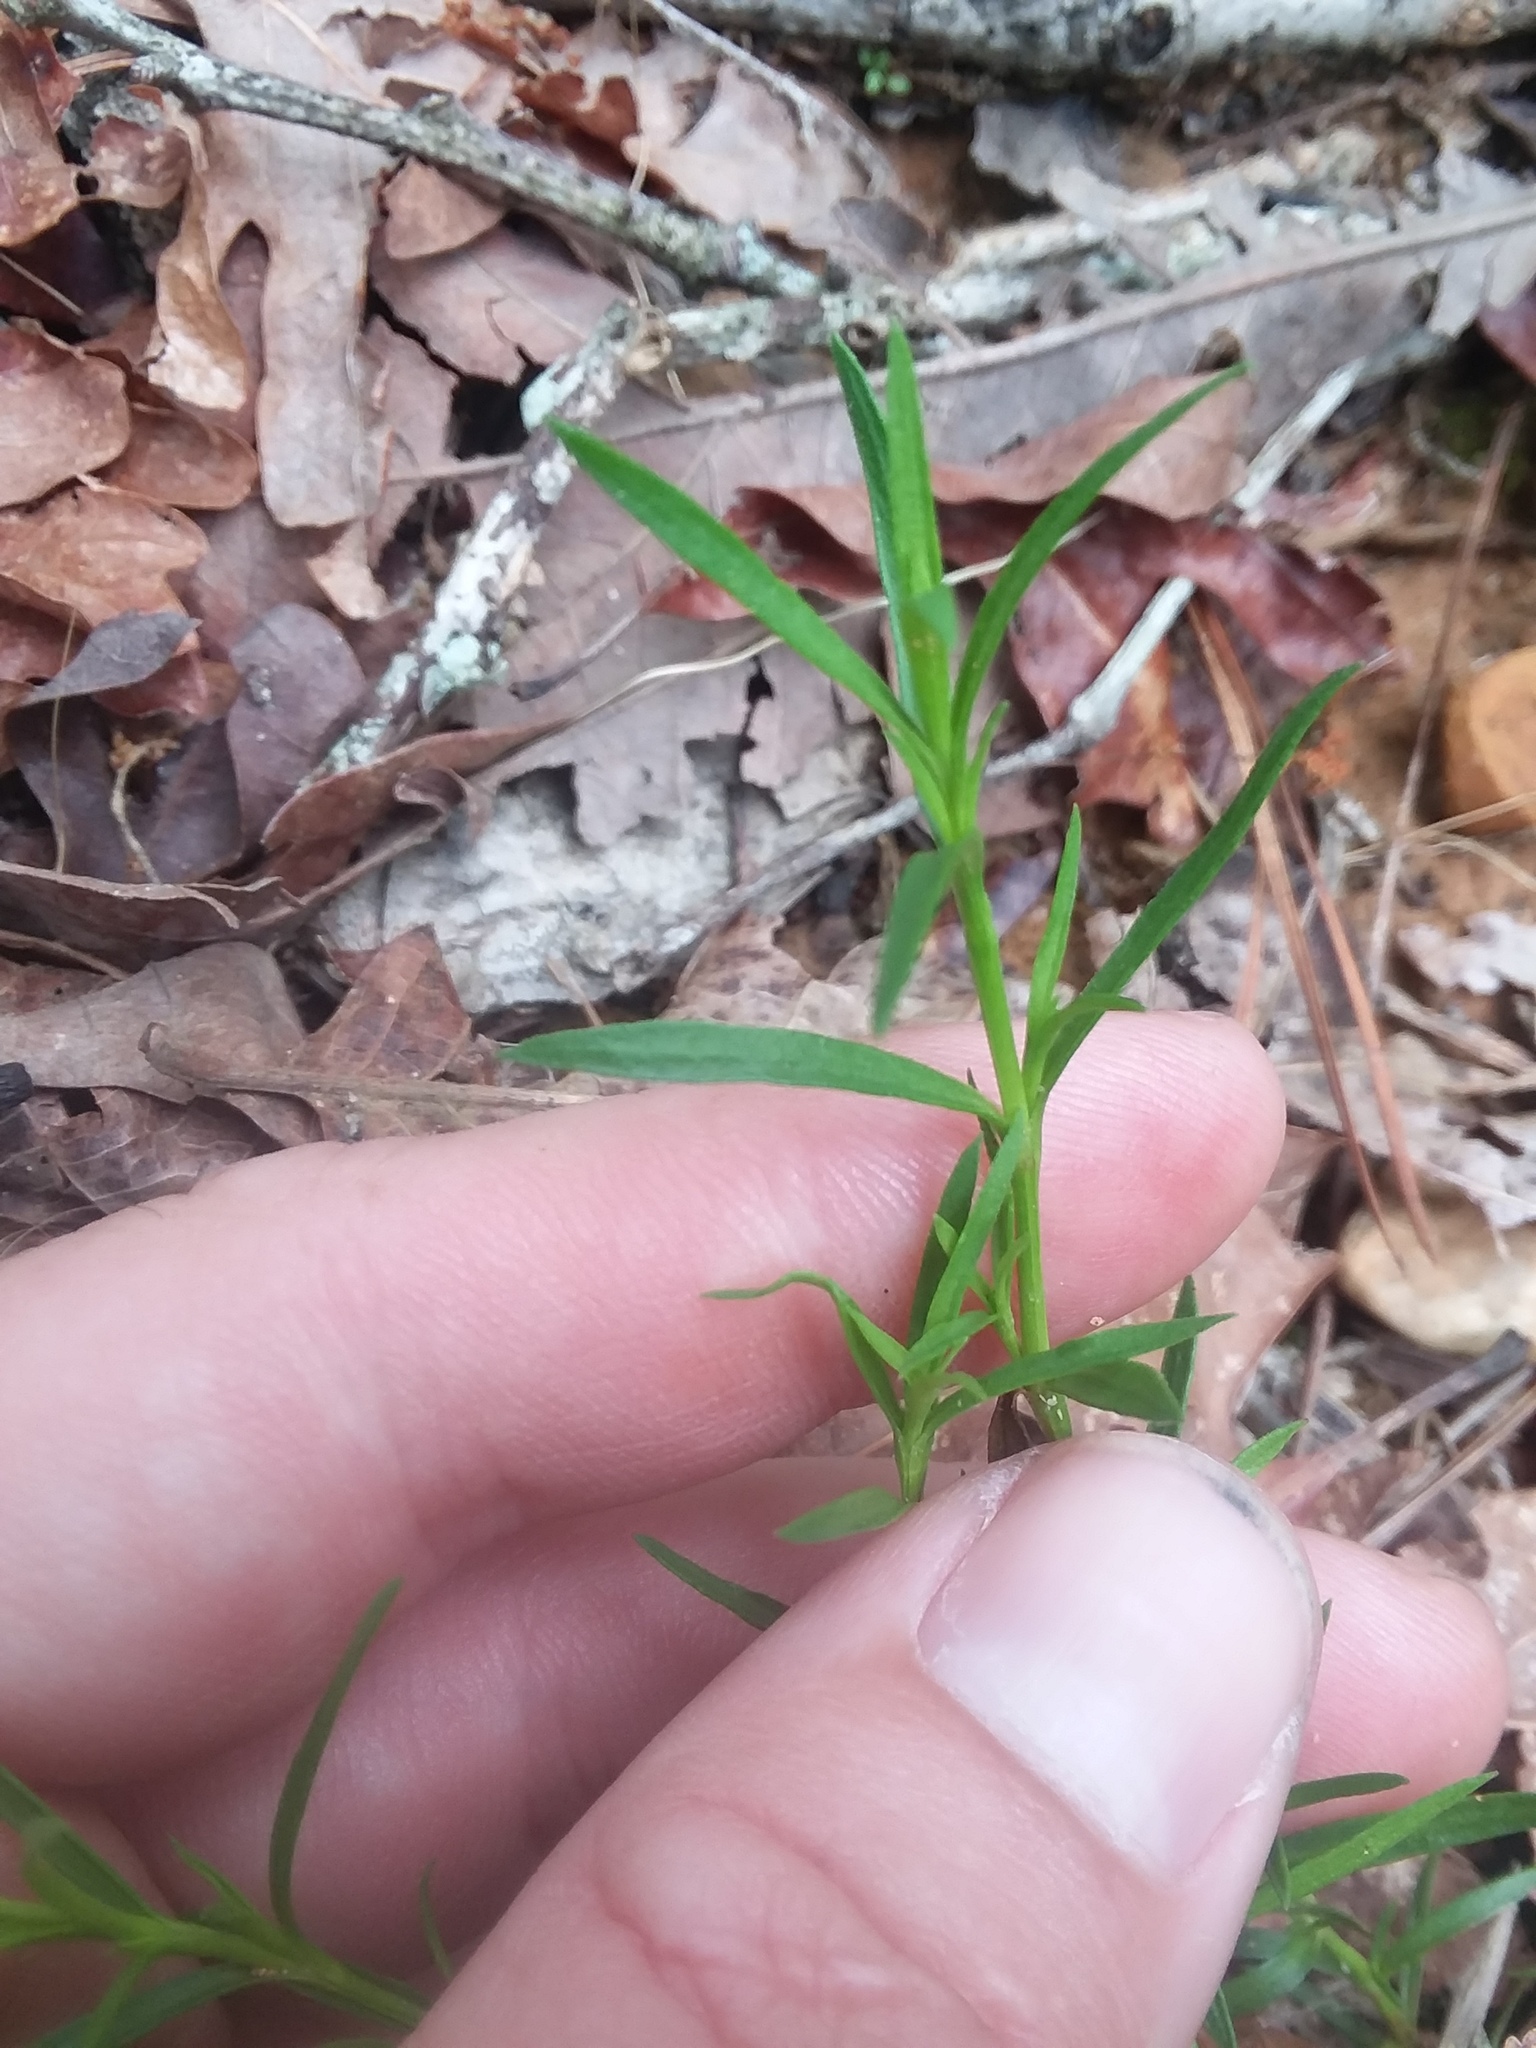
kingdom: Plantae
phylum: Tracheophyta
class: Magnoliopsida
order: Lamiales
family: Tetrachondraceae
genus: Polypremum
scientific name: Polypremum procumbens
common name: Juniper-leaf
